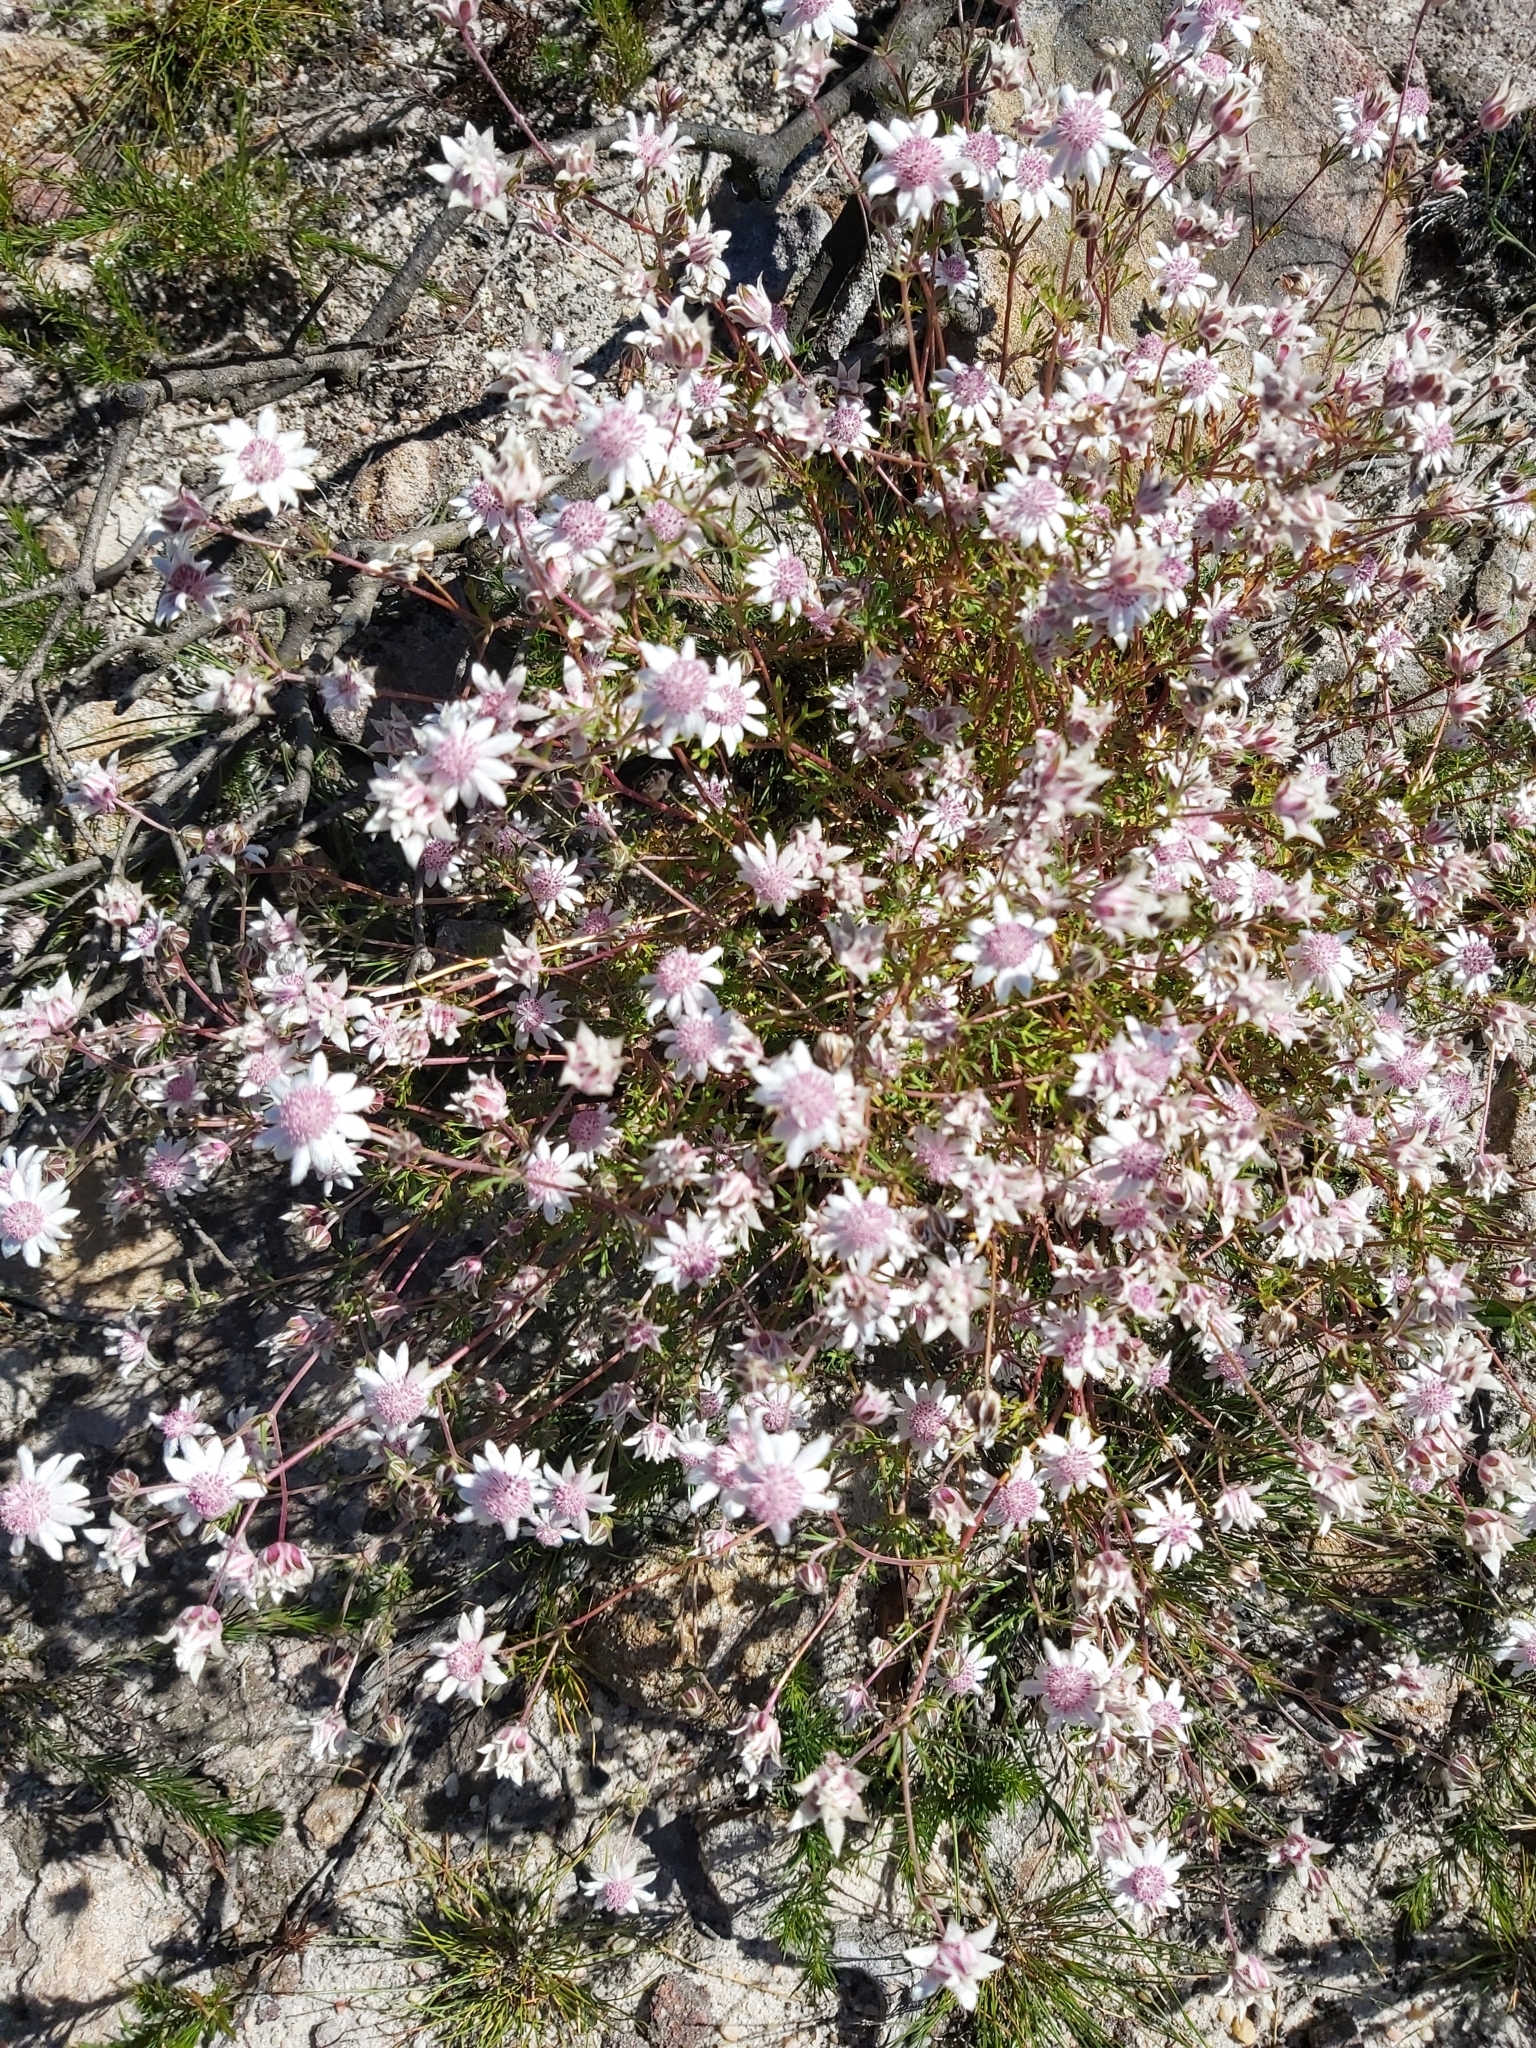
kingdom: Plantae
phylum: Tracheophyta
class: Magnoliopsida
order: Apiales
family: Apiaceae
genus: Actinotus
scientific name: Actinotus forsythii
